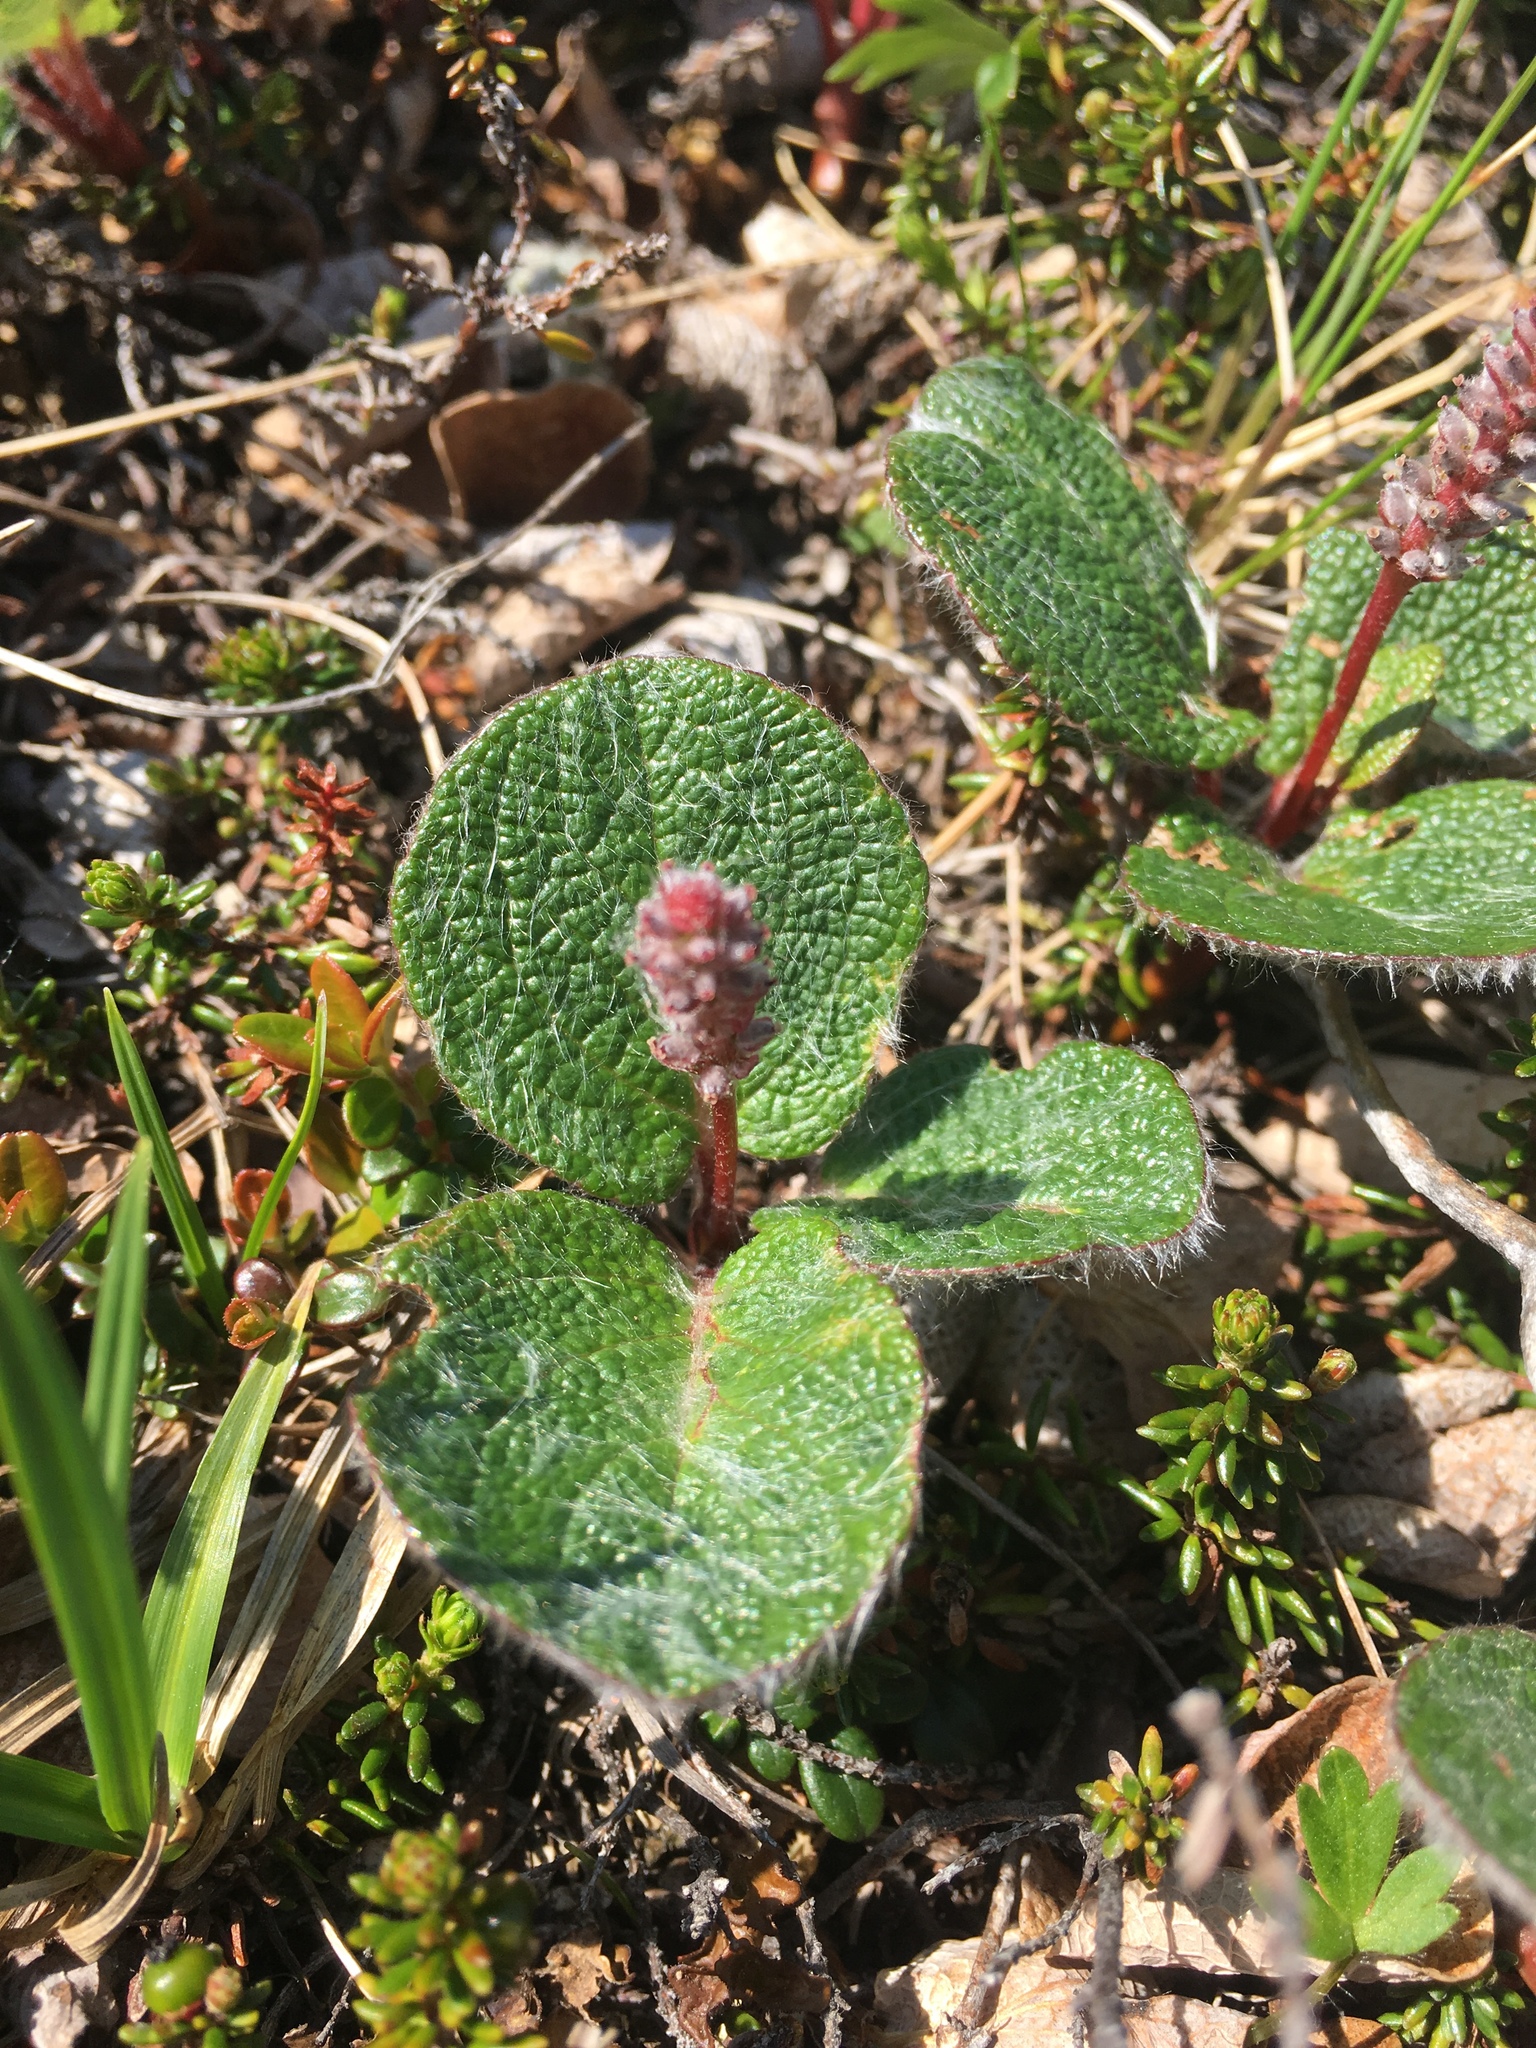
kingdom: Plantae
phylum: Tracheophyta
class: Magnoliopsida
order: Malpighiales
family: Salicaceae
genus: Salix
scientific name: Salix reticulata
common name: Net-leaved willow
